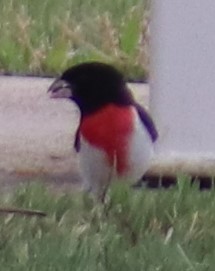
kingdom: Animalia
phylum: Chordata
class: Aves
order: Passeriformes
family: Cardinalidae
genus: Pheucticus
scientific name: Pheucticus ludovicianus
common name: Rose-breasted grosbeak
